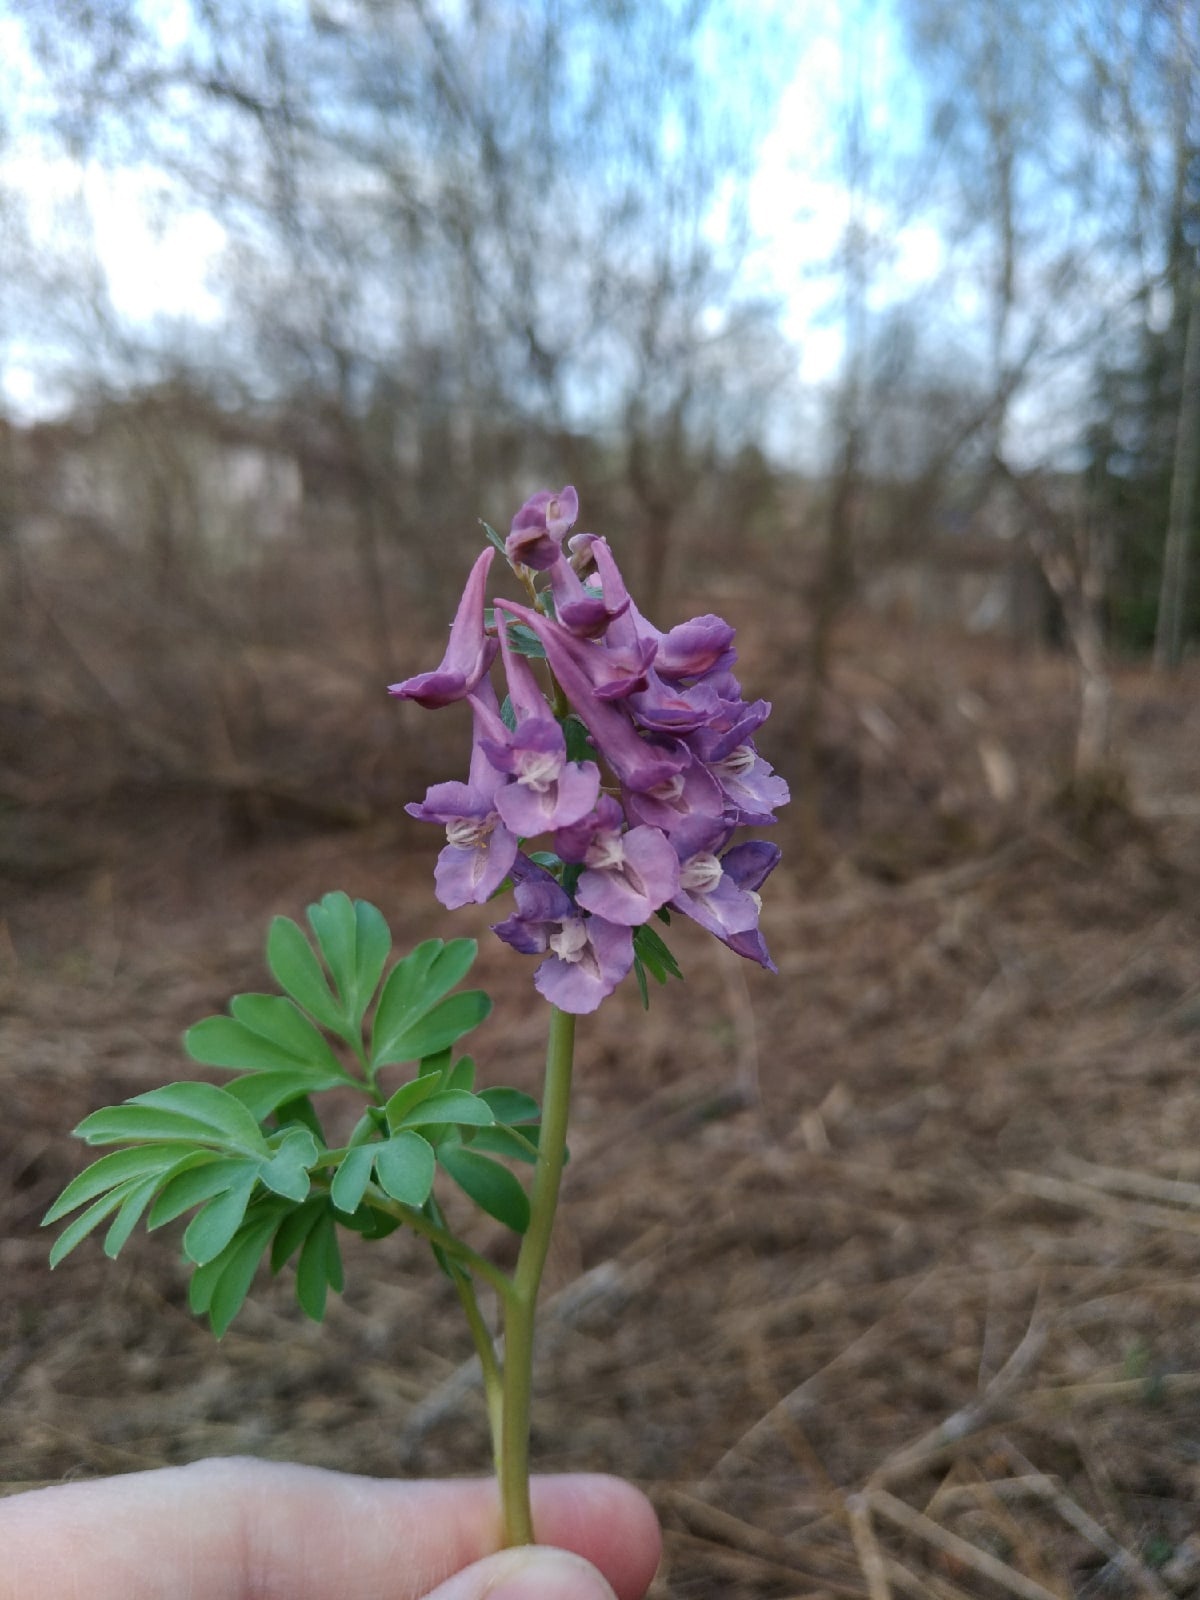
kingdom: Plantae
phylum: Tracheophyta
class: Magnoliopsida
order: Ranunculales
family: Papaveraceae
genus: Corydalis
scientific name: Corydalis solida
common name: Bird-in-a-bush
